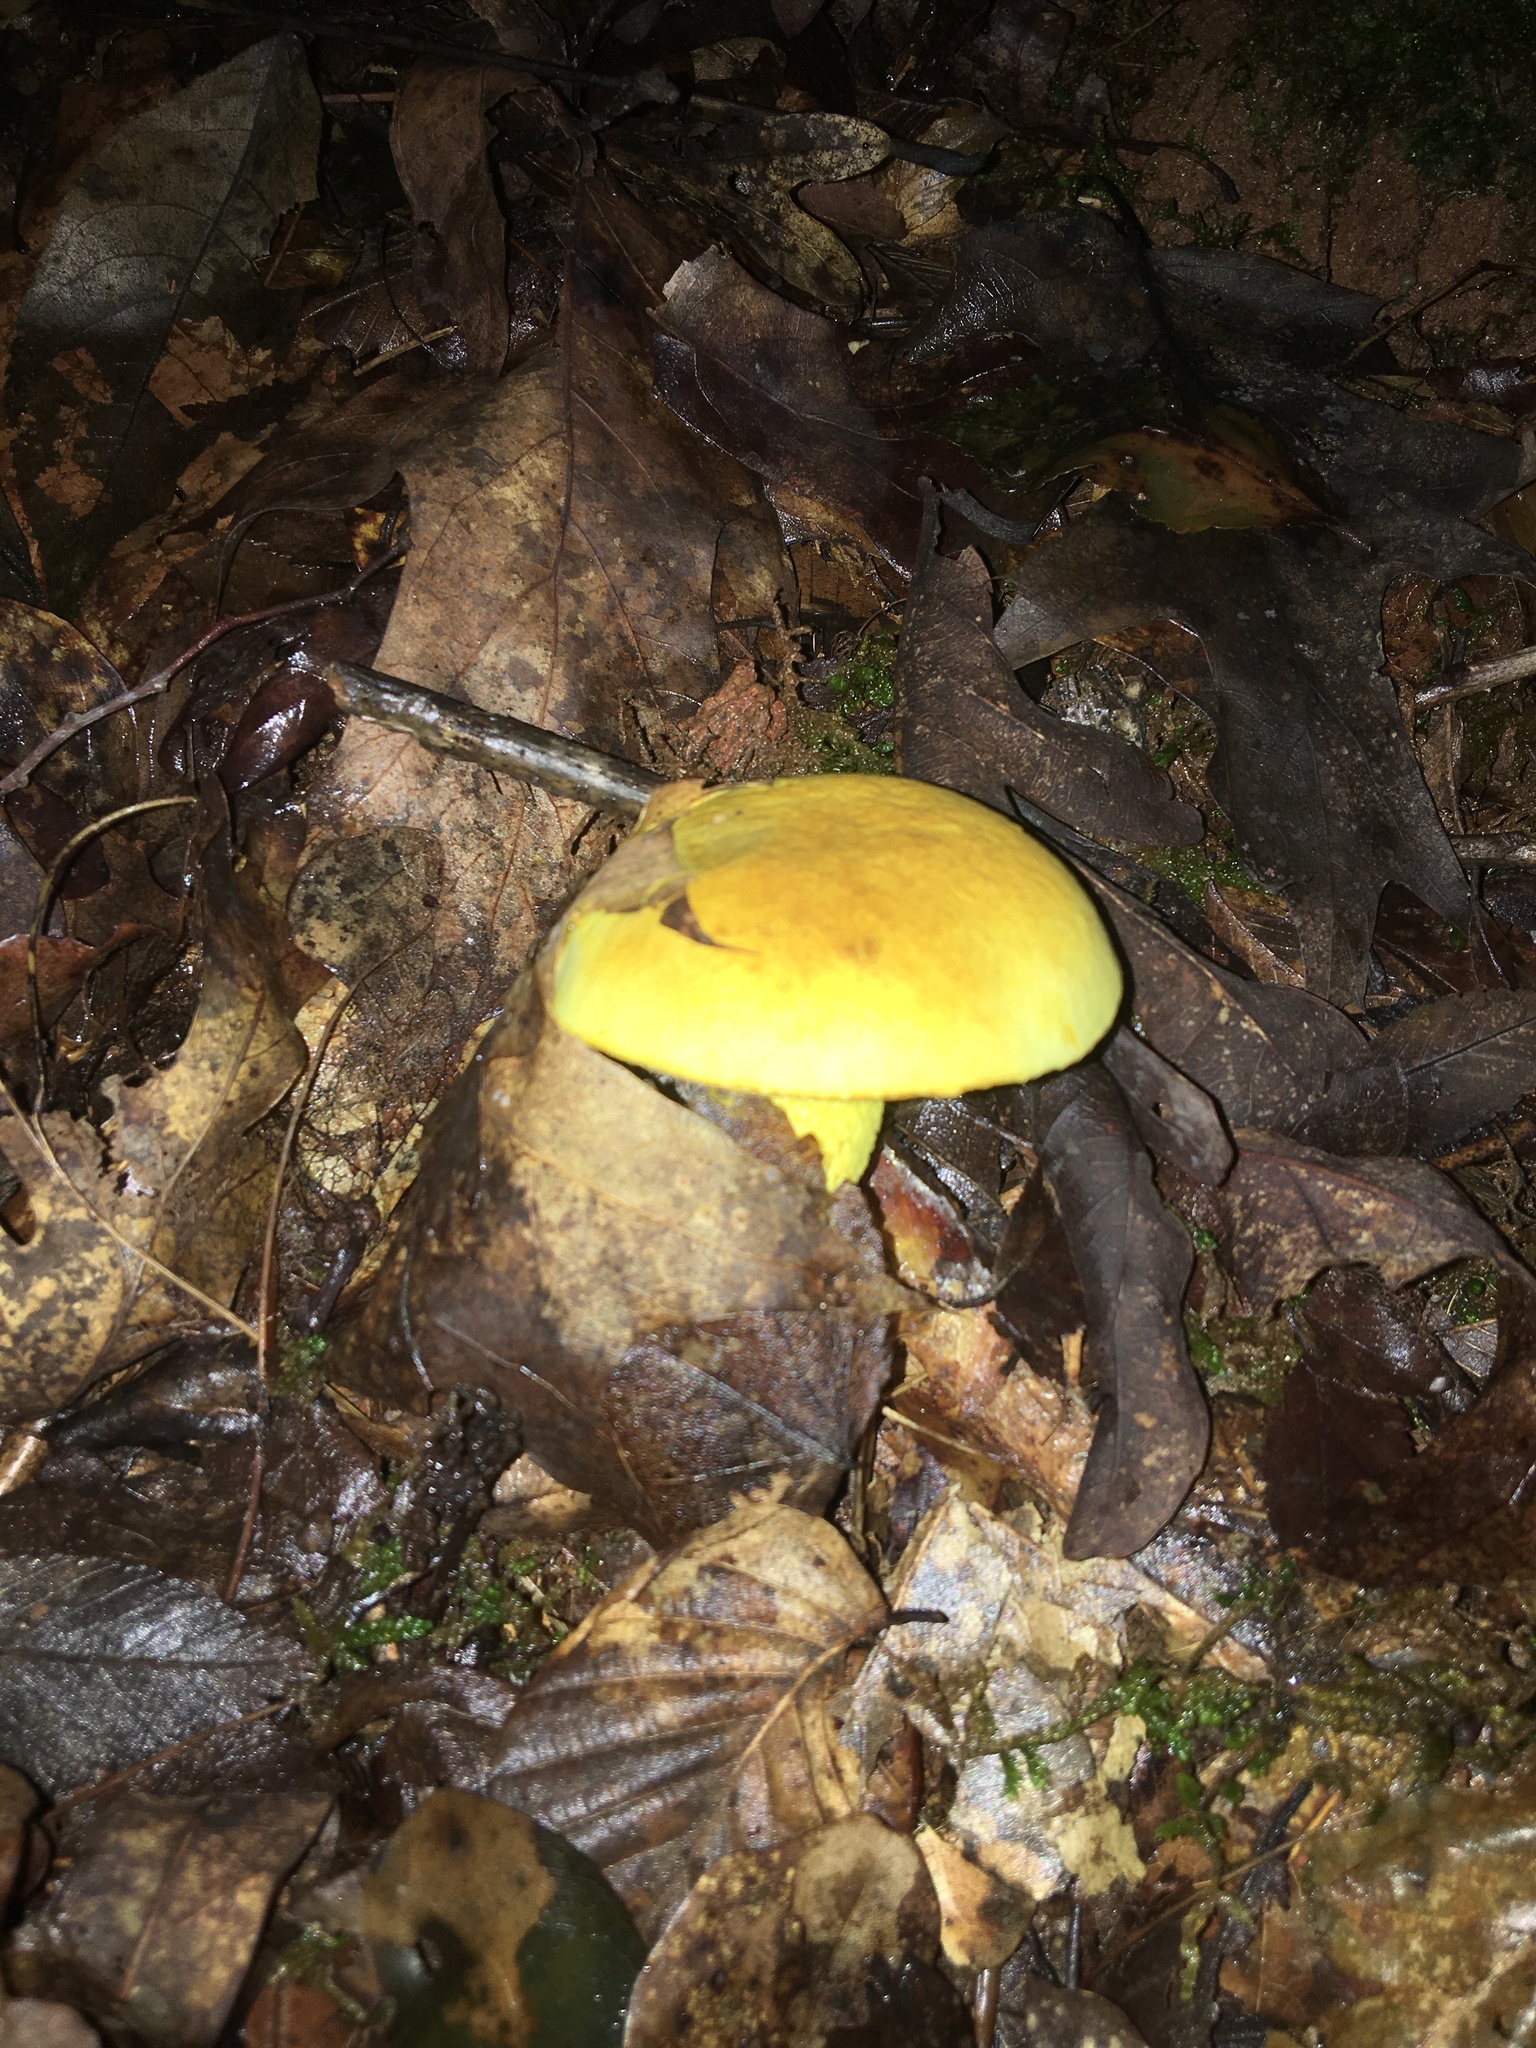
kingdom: Fungi
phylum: Basidiomycota
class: Agaricomycetes
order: Boletales
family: Boletaceae
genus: Retiboletus
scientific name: Retiboletus ornatipes
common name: Ornate-stalked bolete
